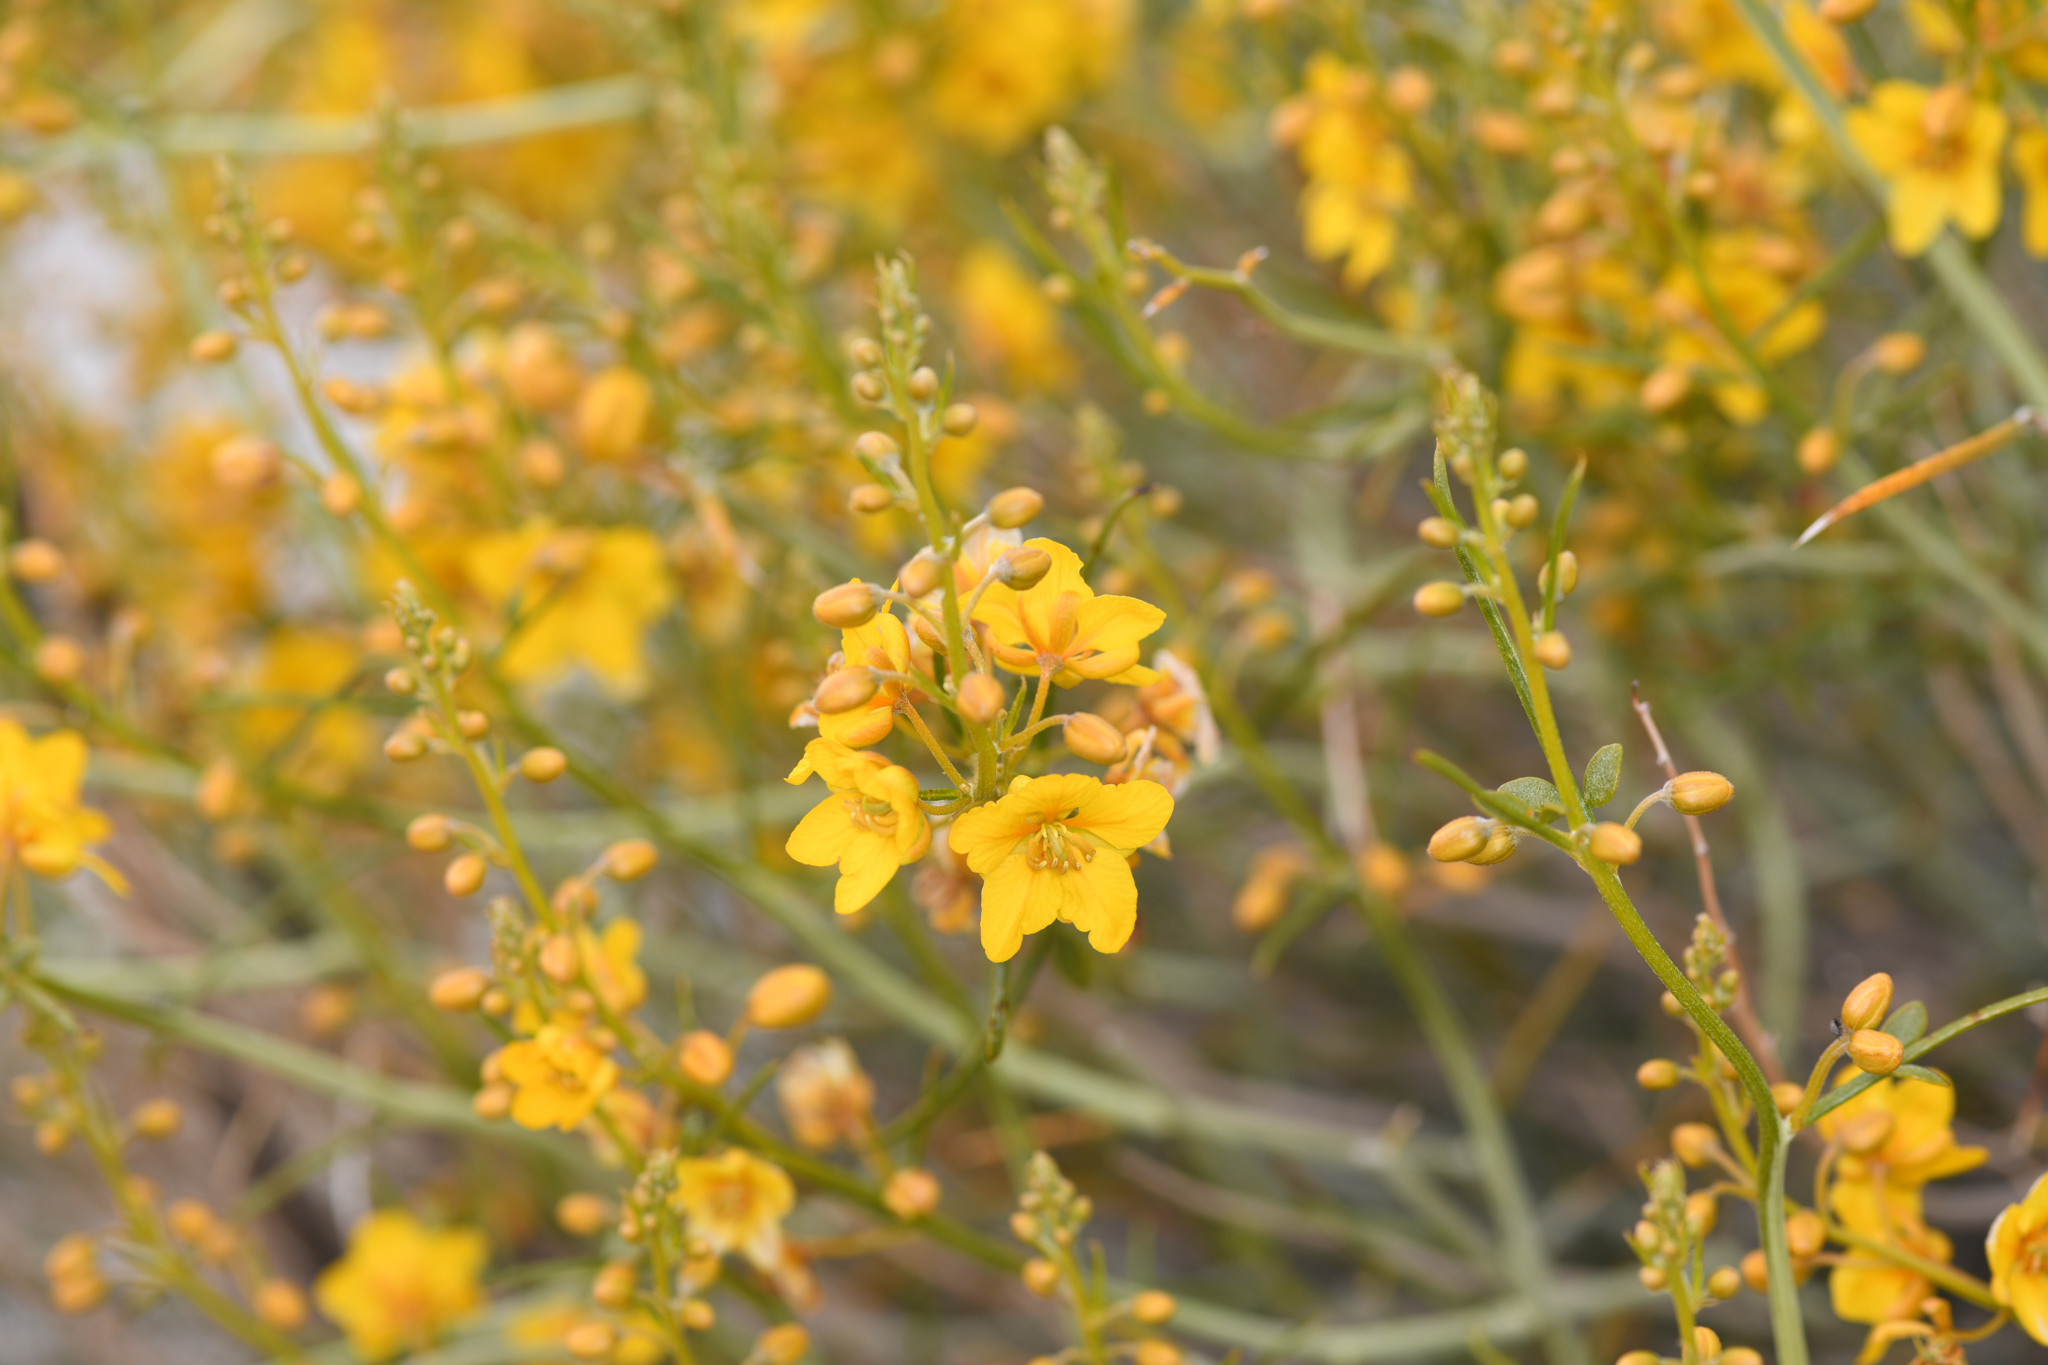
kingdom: Plantae
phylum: Tracheophyta
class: Magnoliopsida
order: Fabales
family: Fabaceae
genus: Senna
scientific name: Senna armata
